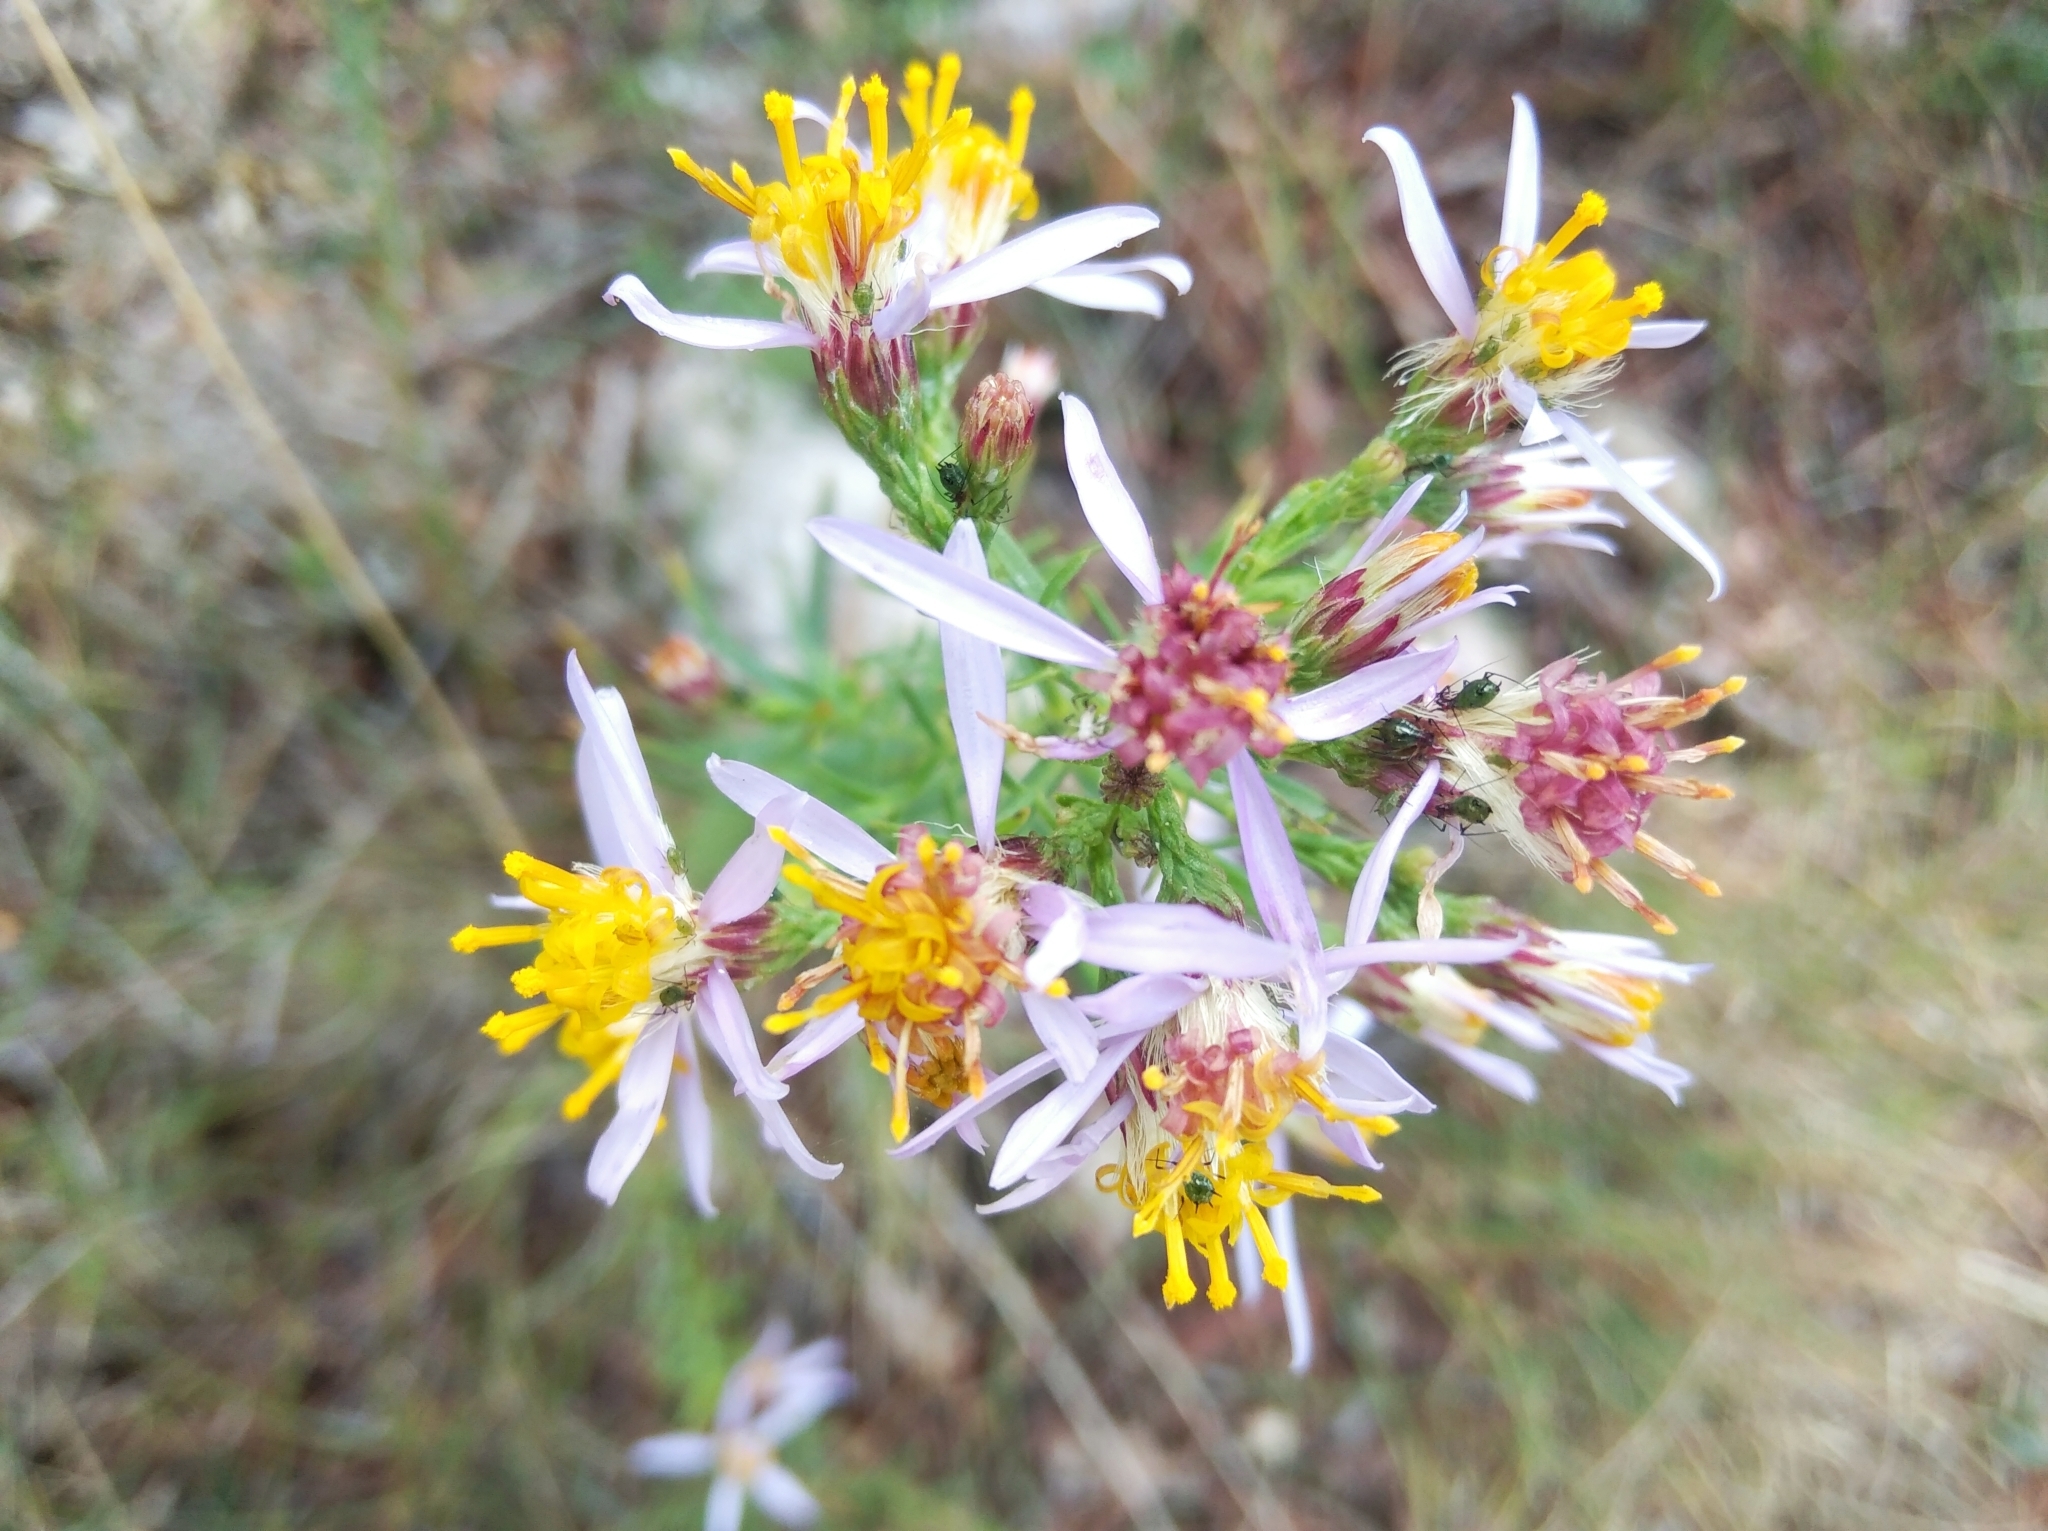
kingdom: Plantae
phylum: Tracheophyta
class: Magnoliopsida
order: Asterales
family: Asteraceae
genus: Galatella
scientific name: Galatella sedifolia
